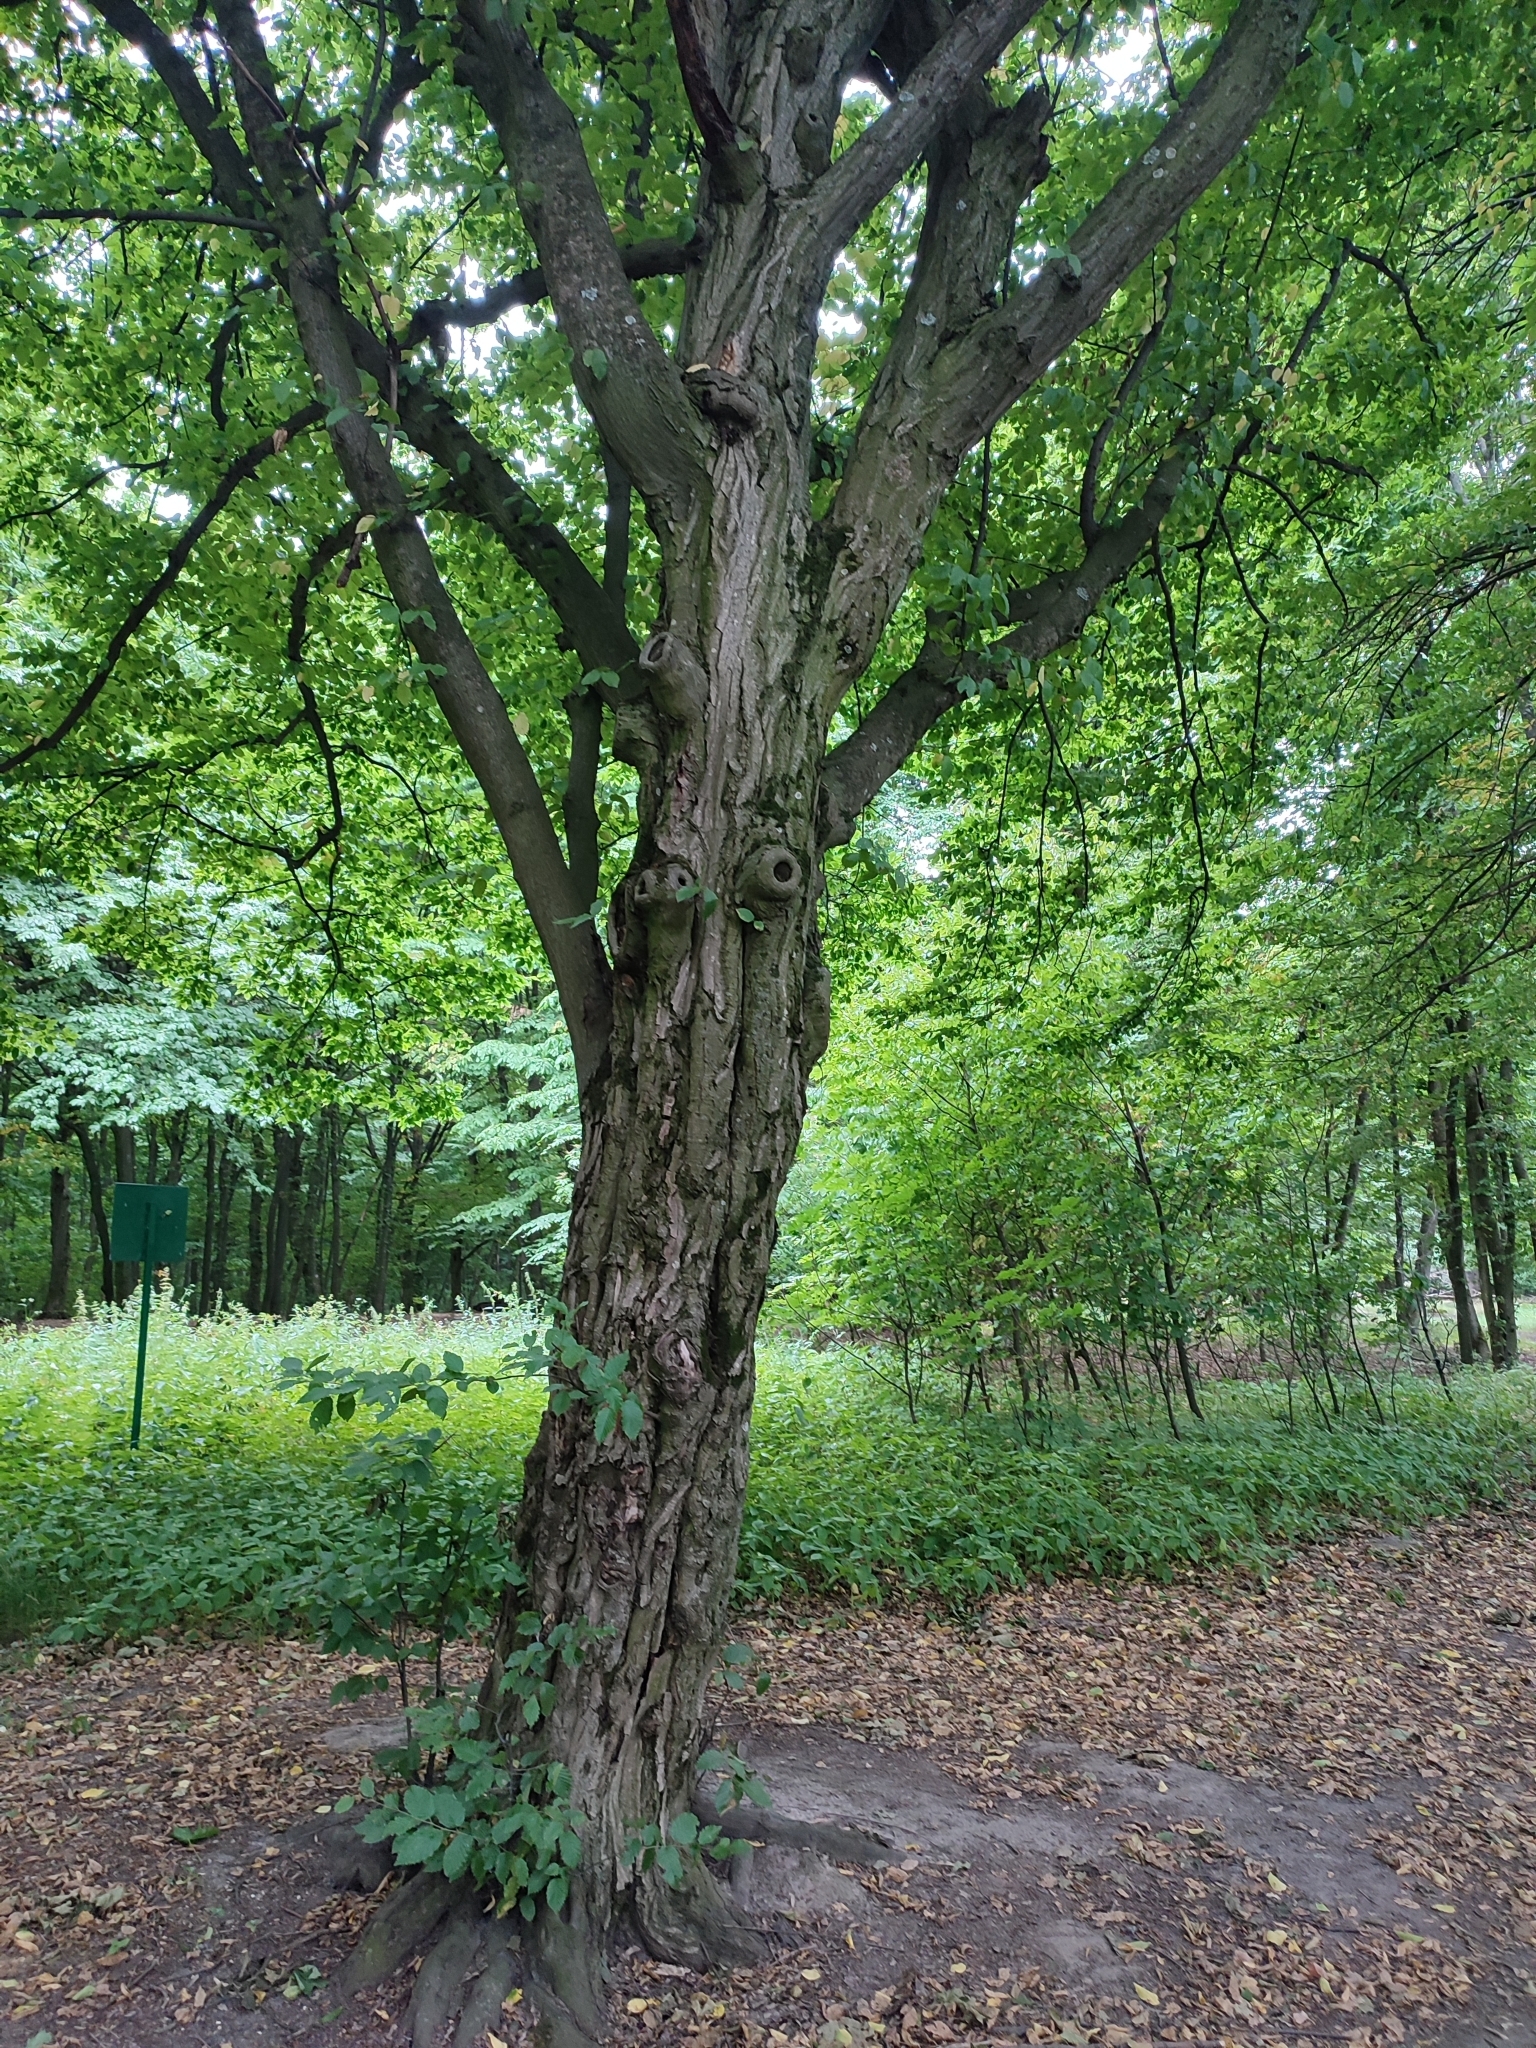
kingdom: Plantae
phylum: Tracheophyta
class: Magnoliopsida
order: Fagales
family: Betulaceae
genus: Carpinus
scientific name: Carpinus betulus
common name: Hornbeam
